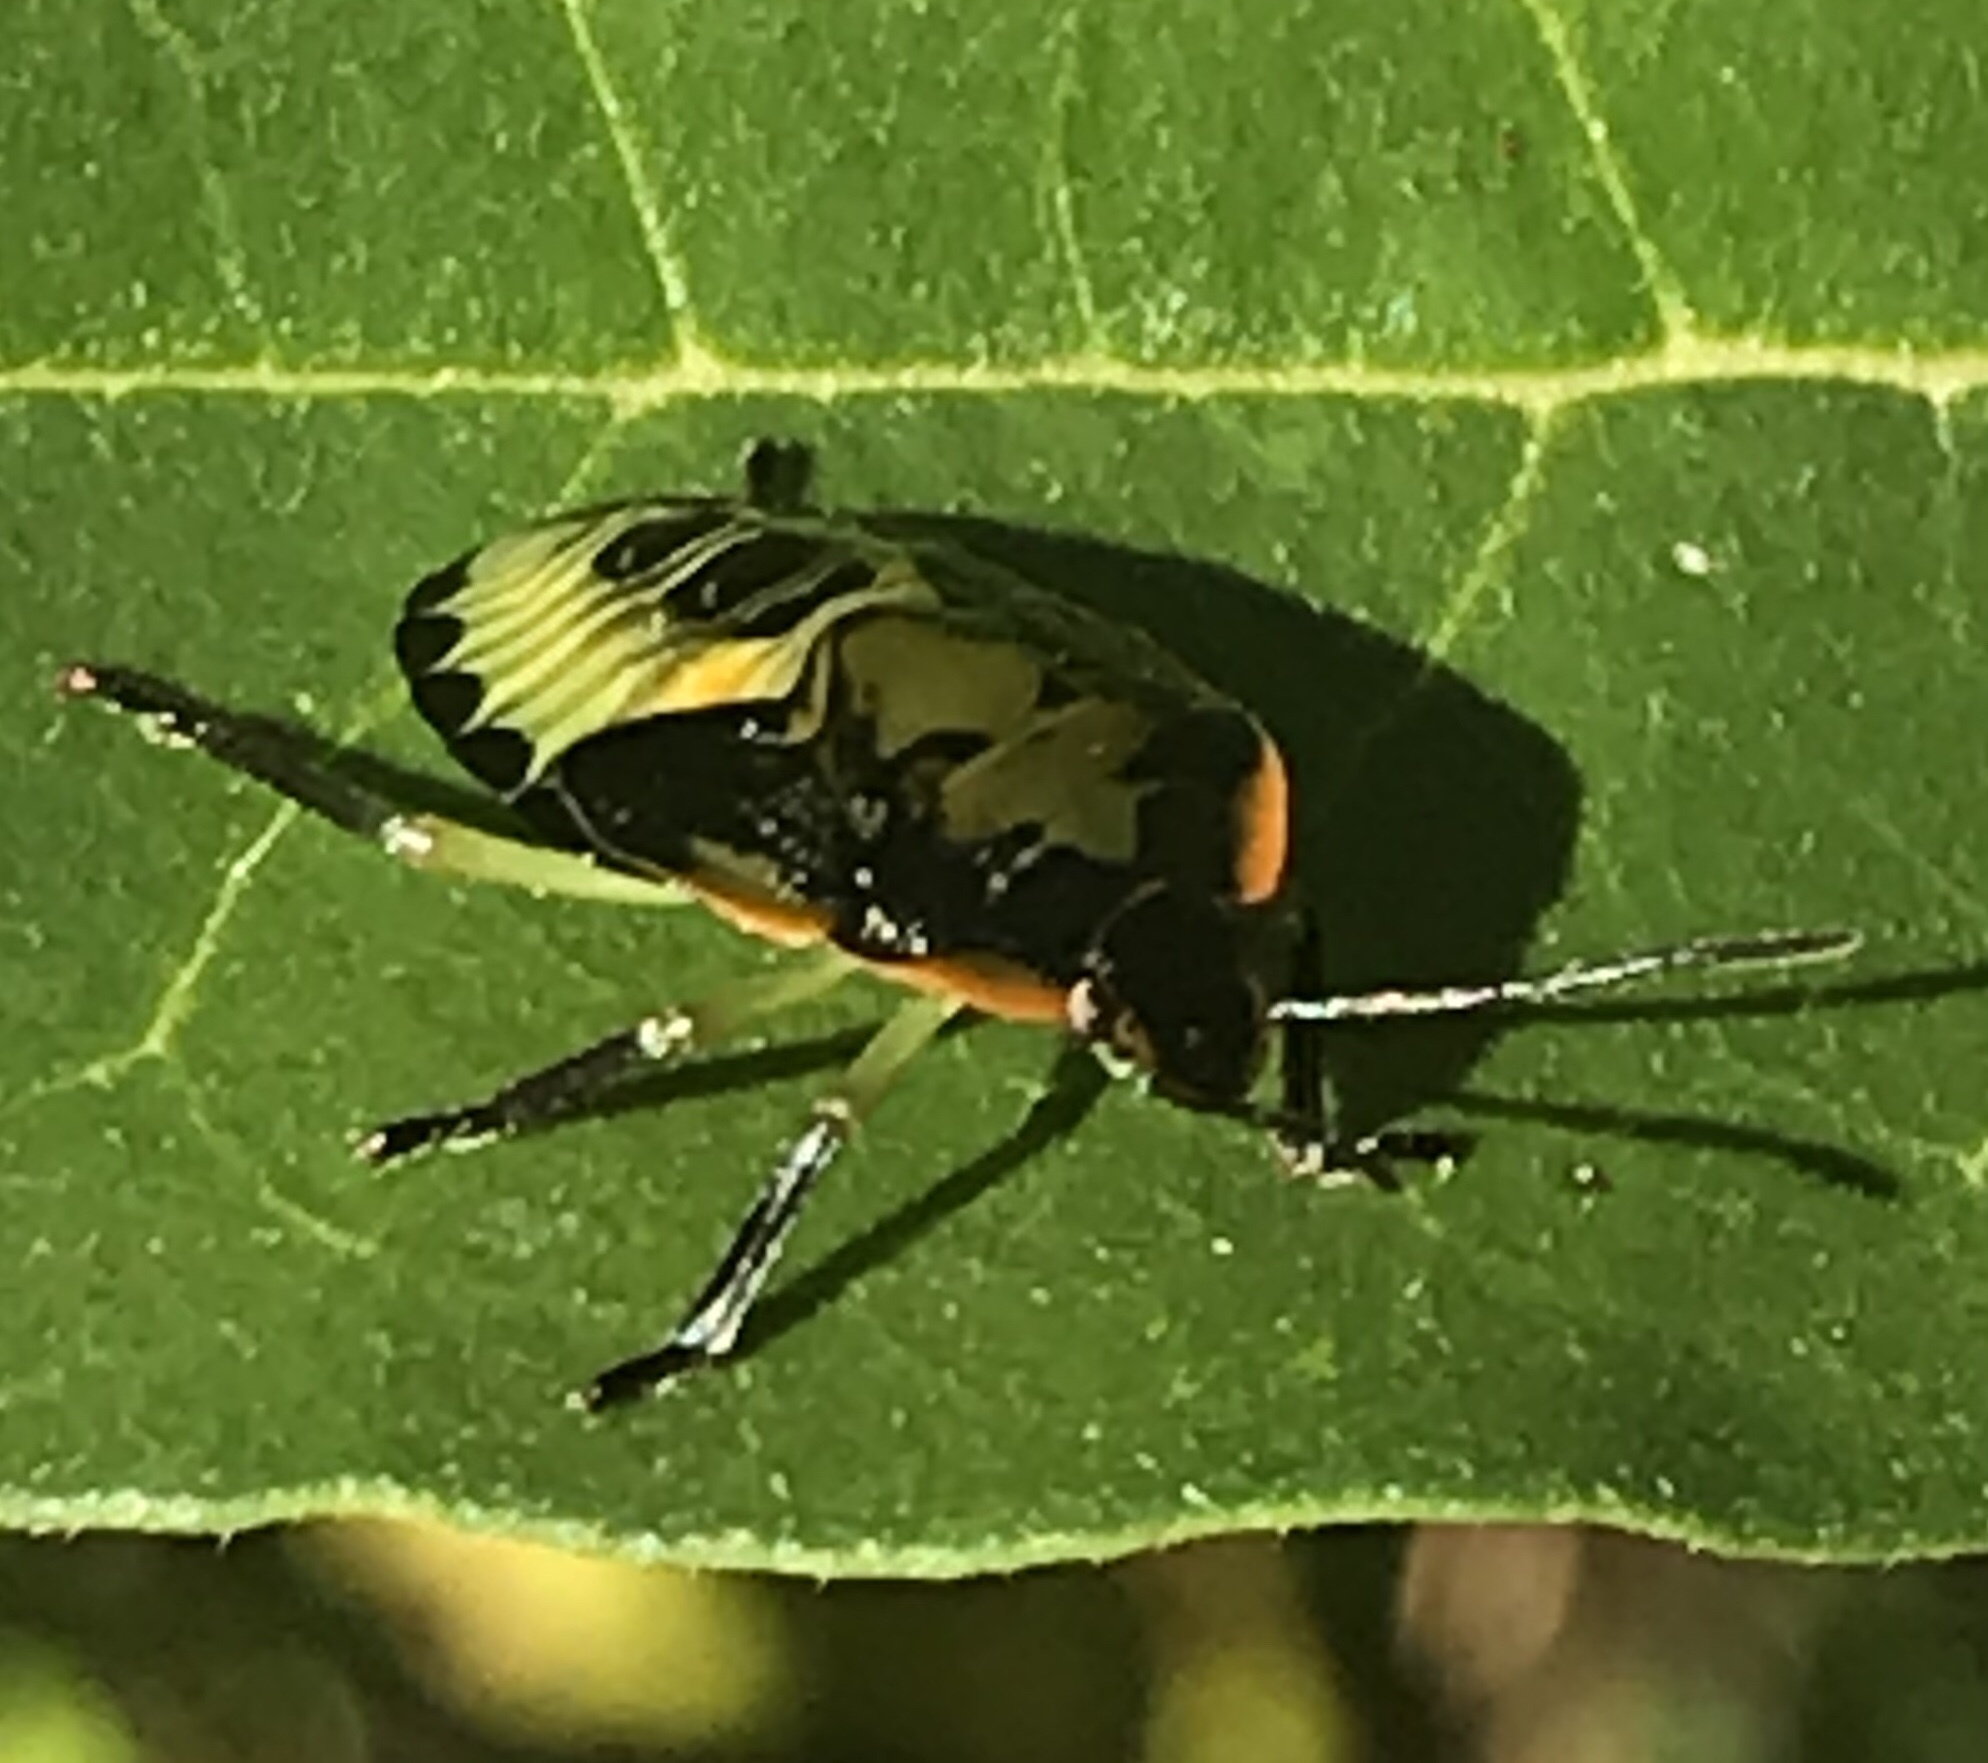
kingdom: Animalia
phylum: Arthropoda
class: Insecta
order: Hemiptera
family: Pentatomidae
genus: Chinavia
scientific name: Chinavia hilaris
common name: Green stink bug
